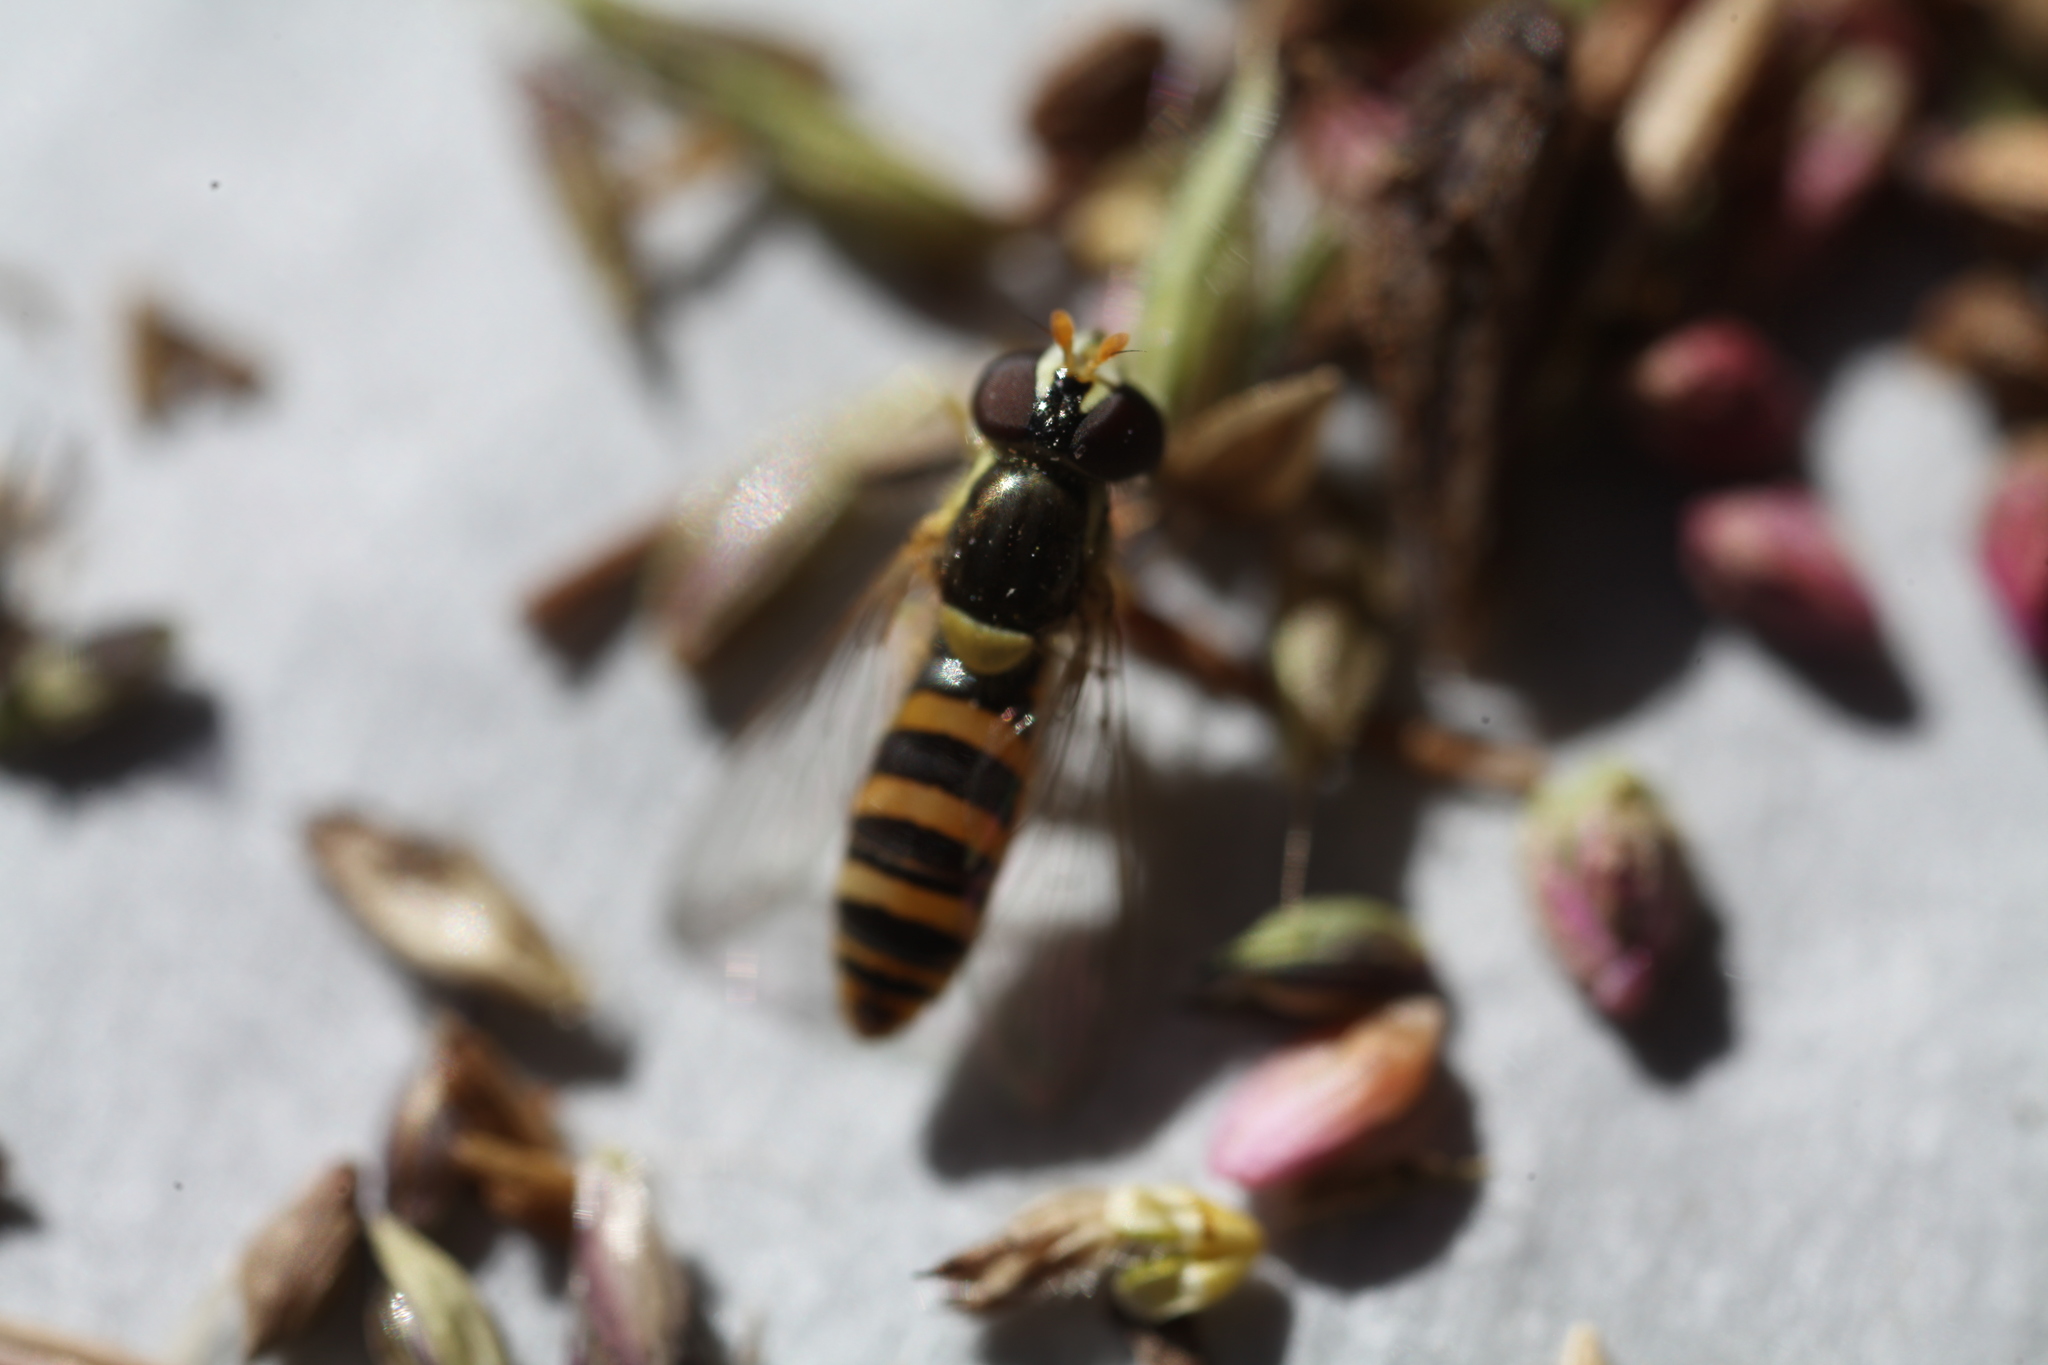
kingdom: Animalia
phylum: Arthropoda
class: Insecta
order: Diptera
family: Syrphidae
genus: Sphaerophoria
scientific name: Sphaerophoria contigua
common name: Tufted globetail
